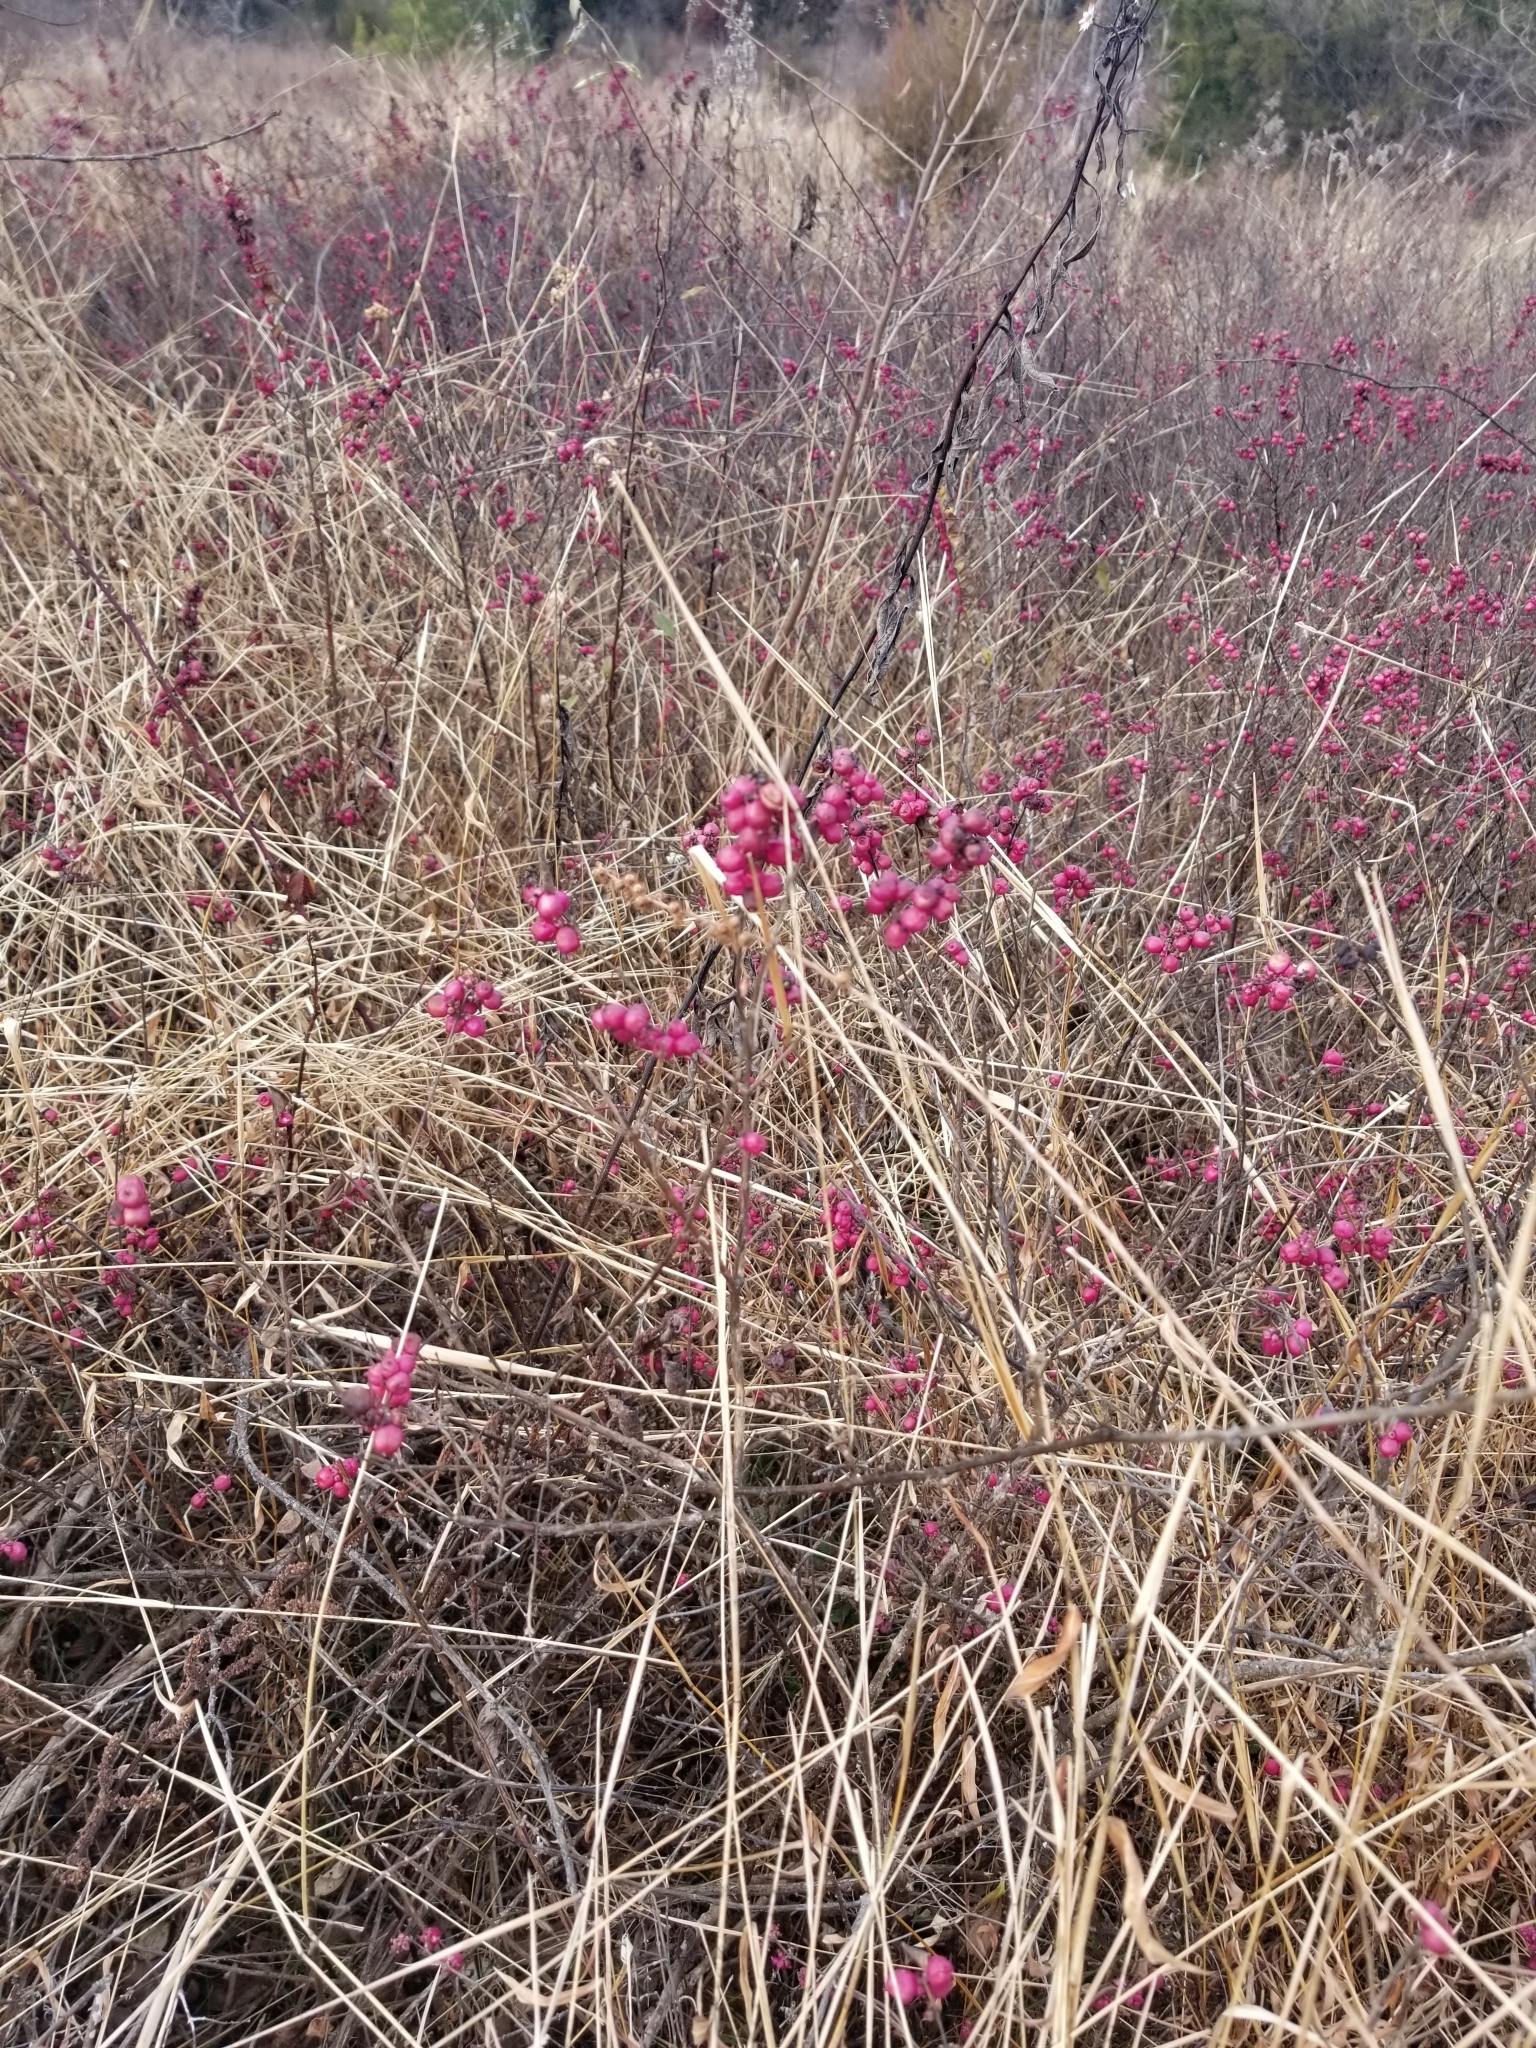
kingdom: Plantae
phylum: Tracheophyta
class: Magnoliopsida
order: Dipsacales
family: Caprifoliaceae
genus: Symphoricarpos
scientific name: Symphoricarpos orbiculatus
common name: Coralberry
